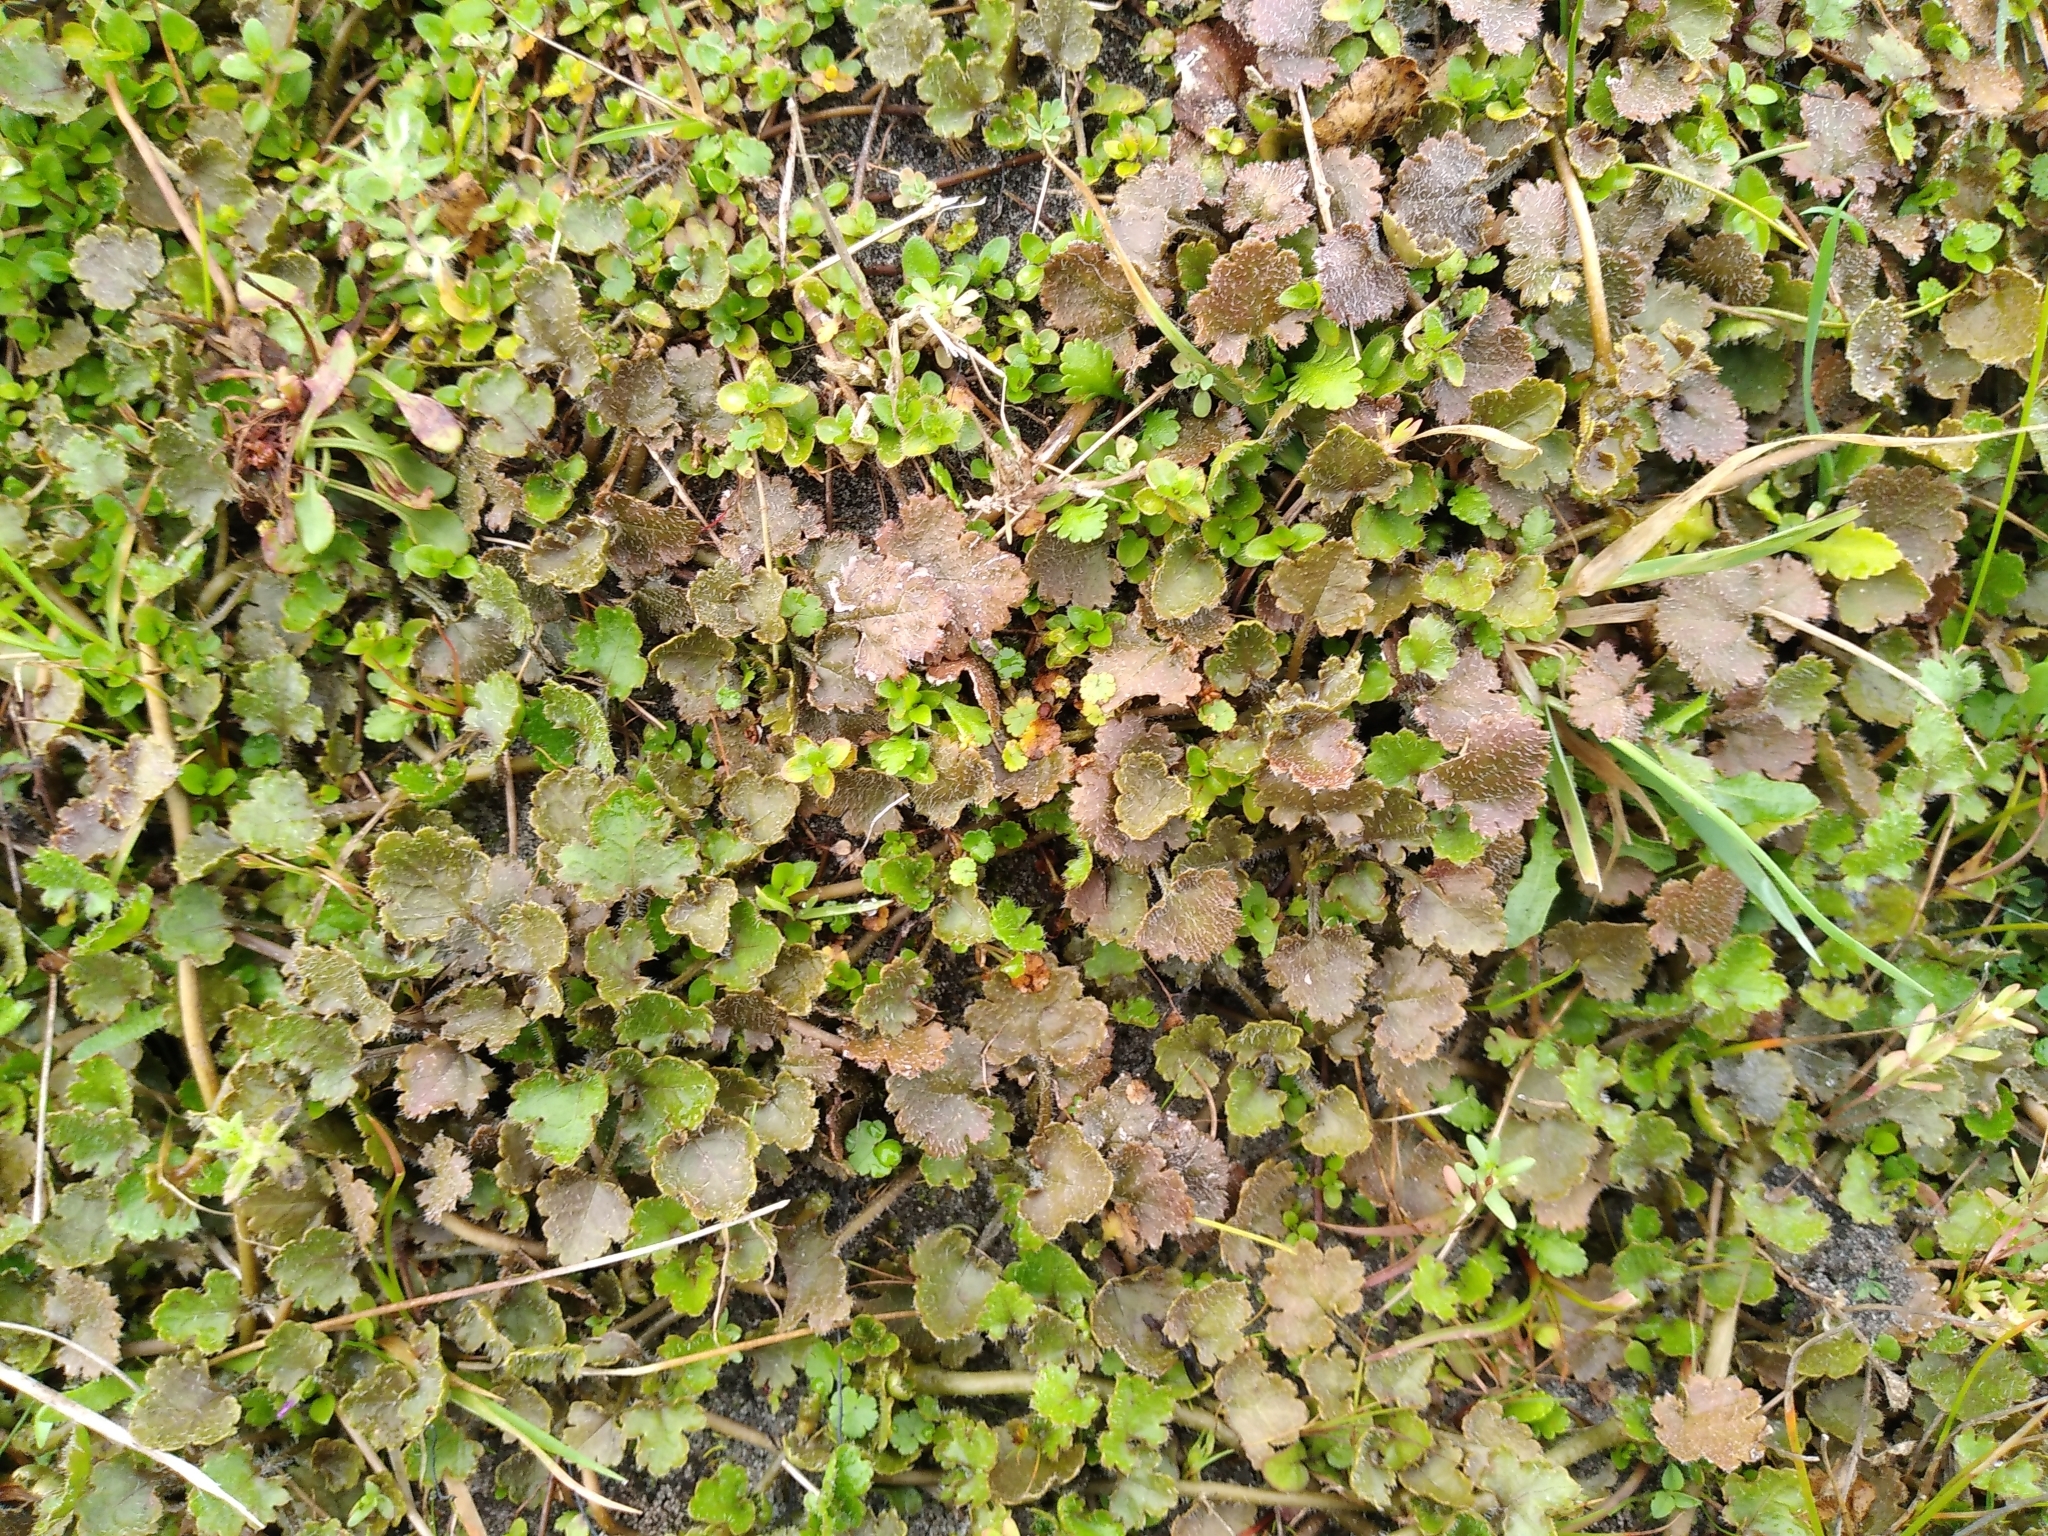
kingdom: Plantae
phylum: Tracheophyta
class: Magnoliopsida
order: Gunnerales
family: Gunneraceae
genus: Gunnera
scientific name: Gunnera monoica
